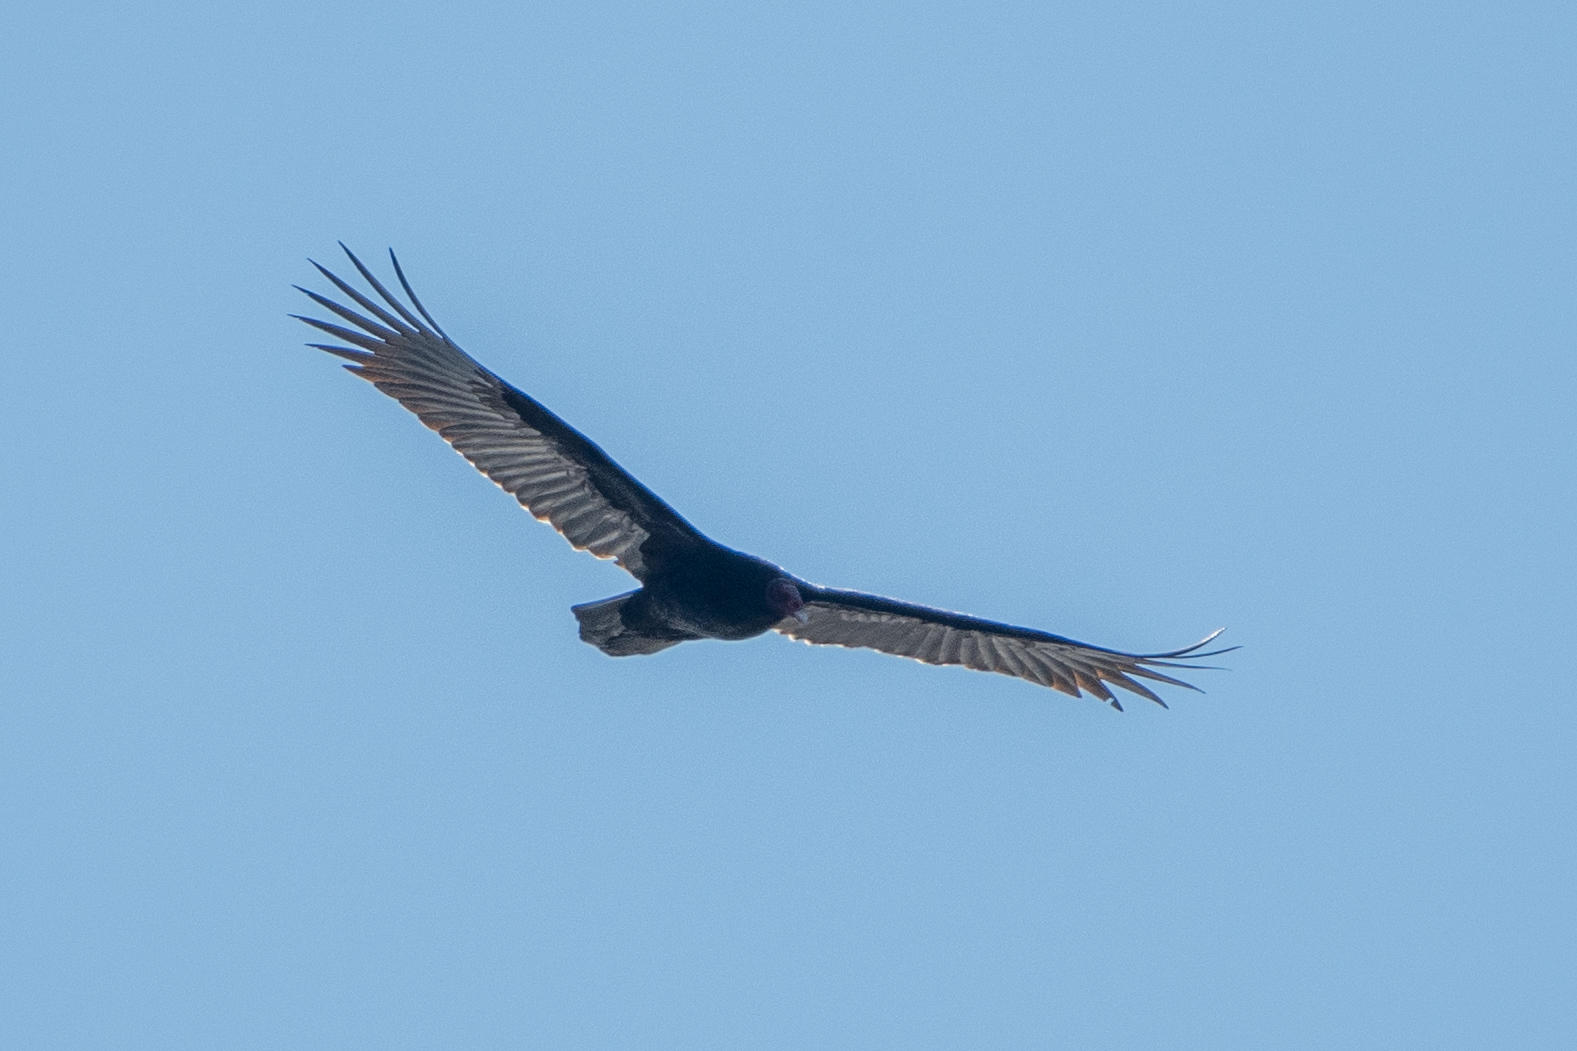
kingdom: Animalia
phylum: Chordata
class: Aves
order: Accipitriformes
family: Cathartidae
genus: Cathartes
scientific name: Cathartes aura
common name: Turkey vulture
